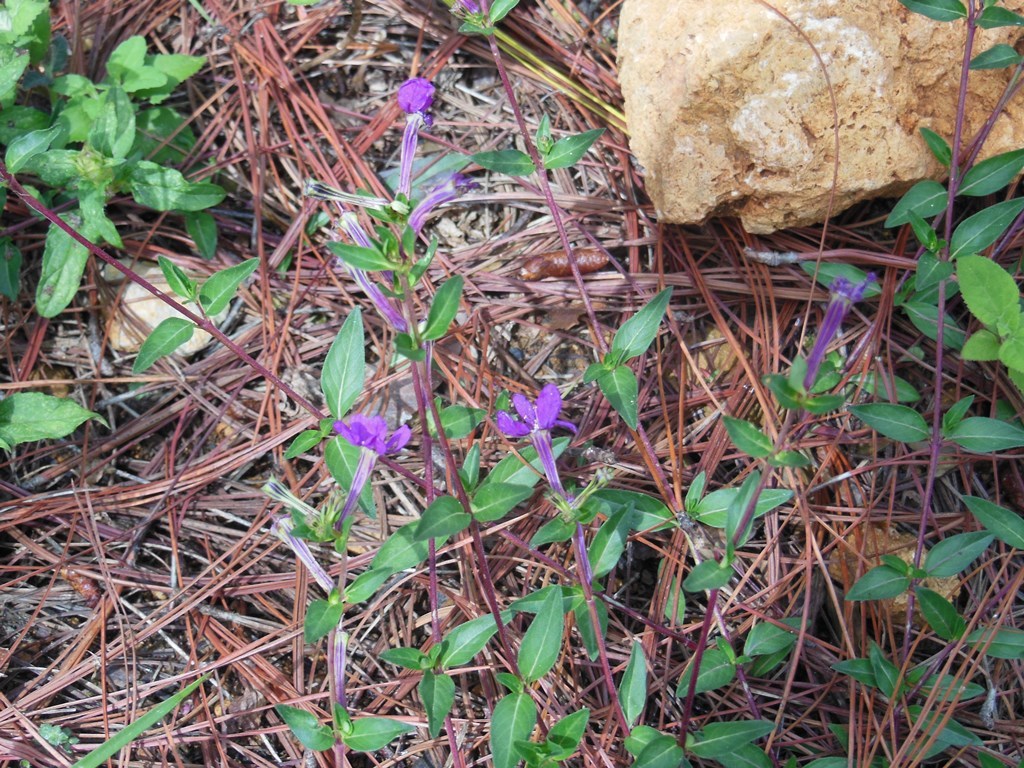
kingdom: Plantae
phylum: Tracheophyta
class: Magnoliopsida
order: Myrtales
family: Lythraceae
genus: Cuphea
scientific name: Cuphea aequipetala
